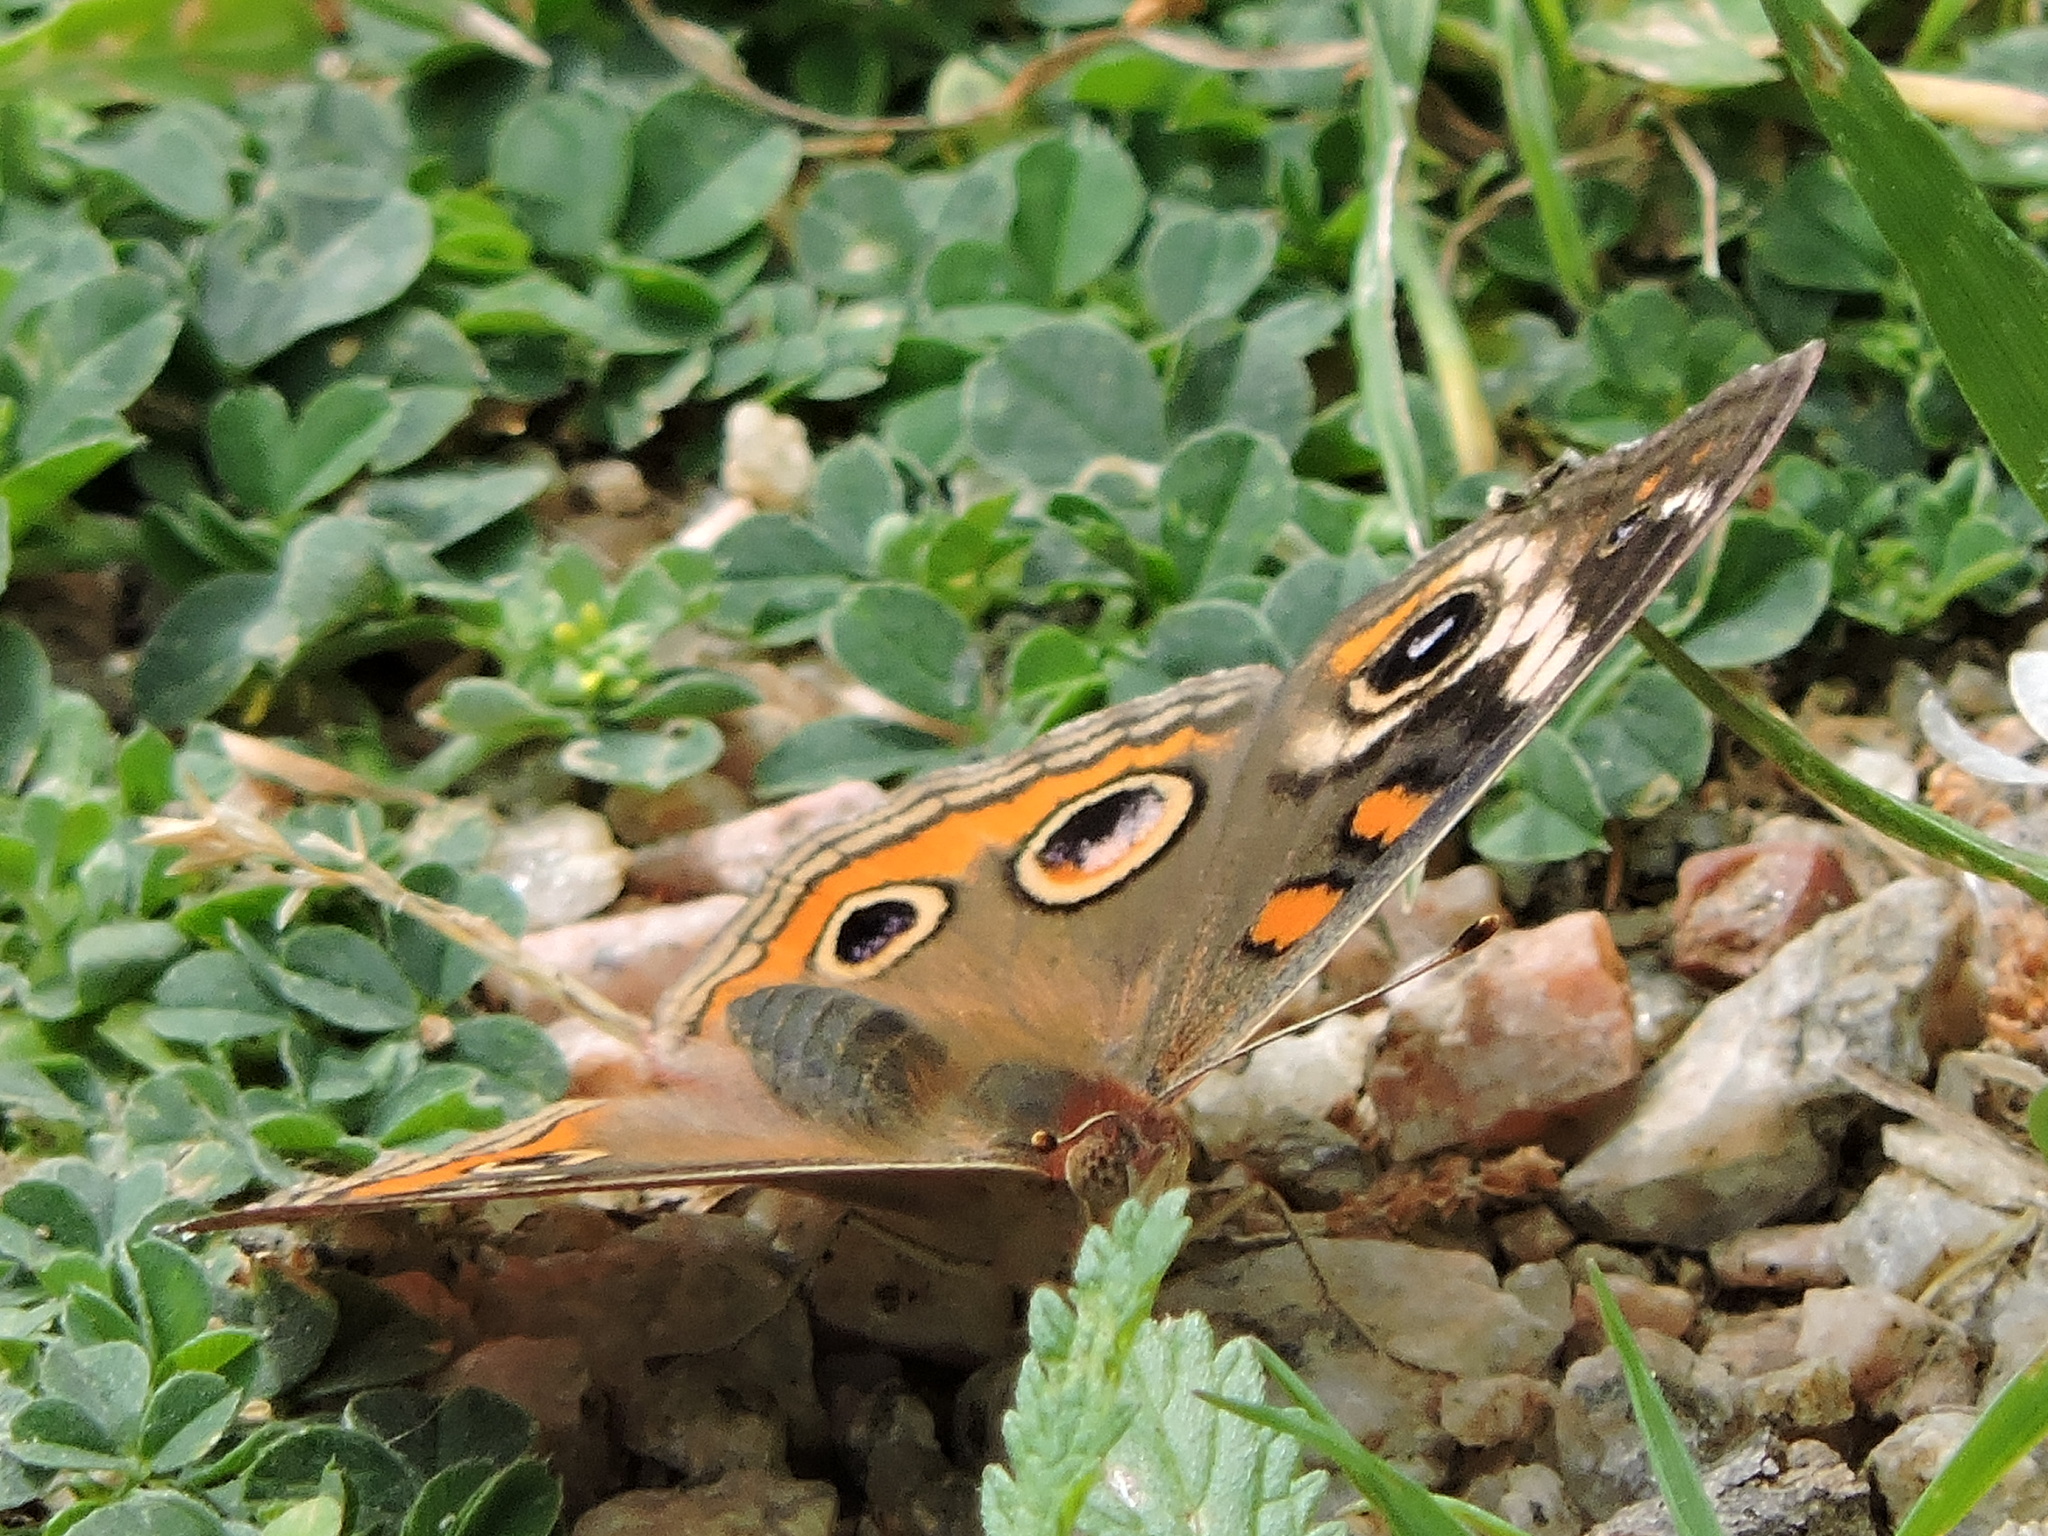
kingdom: Animalia
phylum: Arthropoda
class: Insecta
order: Lepidoptera
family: Nymphalidae
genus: Junonia
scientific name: Junonia coenia
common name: Common buckeye
